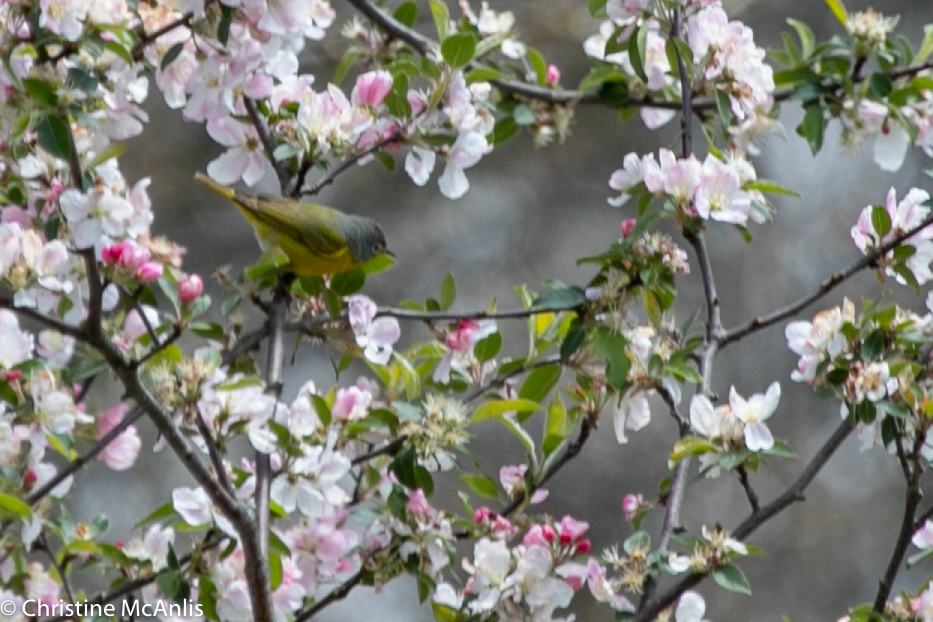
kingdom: Animalia
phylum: Chordata
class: Aves
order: Passeriformes
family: Parulidae
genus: Leiothlypis
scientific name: Leiothlypis ruficapilla
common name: Nashville warbler
